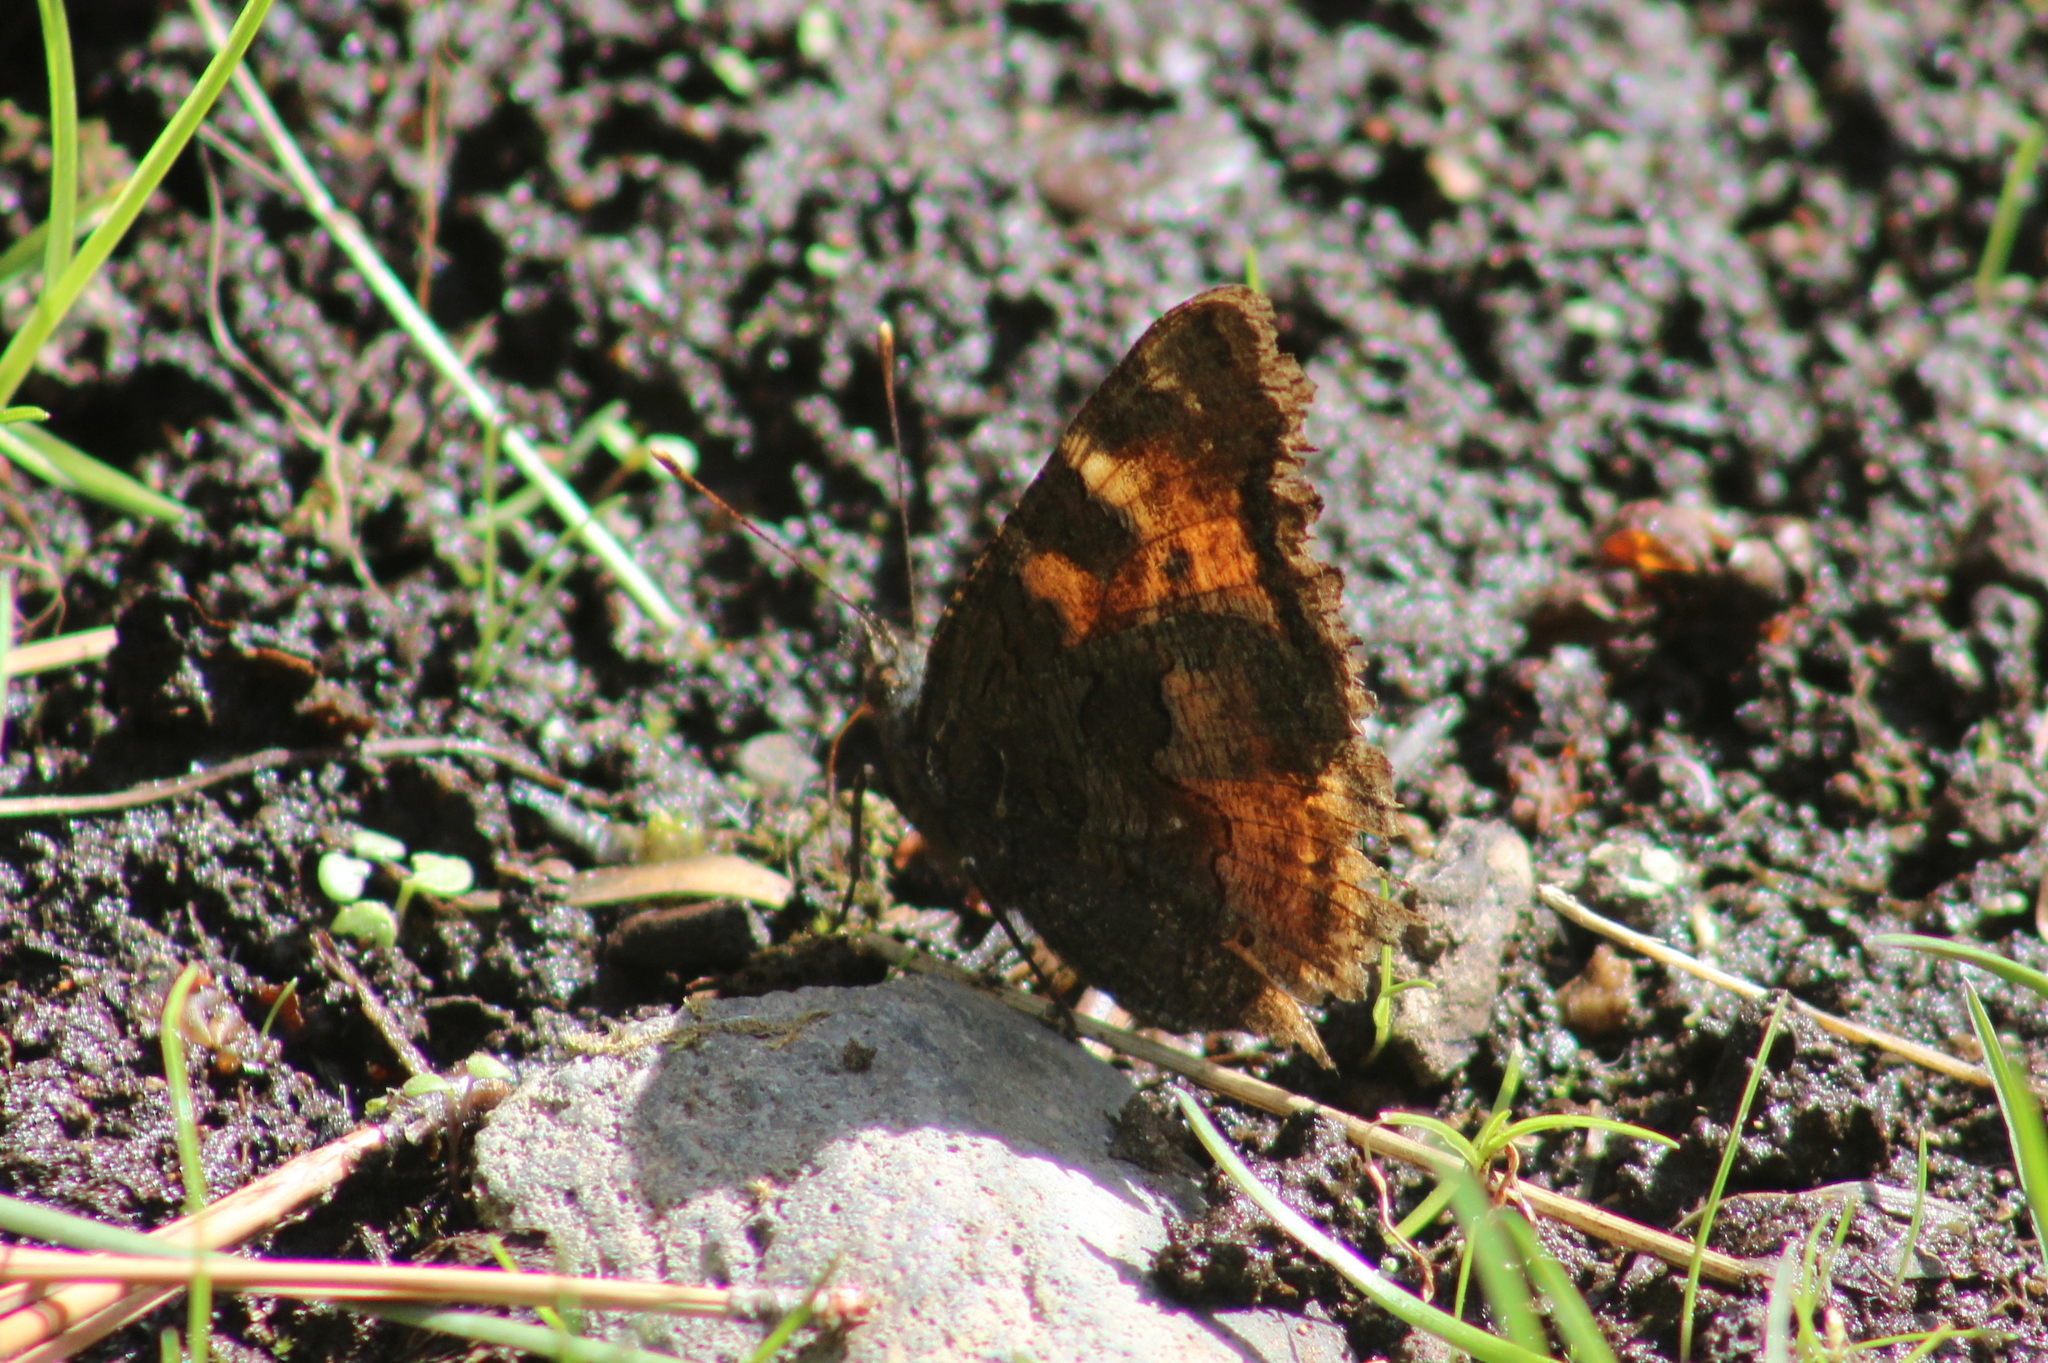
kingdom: Animalia
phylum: Arthropoda
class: Insecta
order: Lepidoptera
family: Nymphalidae
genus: Nymphalis
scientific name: Nymphalis californica
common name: California tortoiseshell
